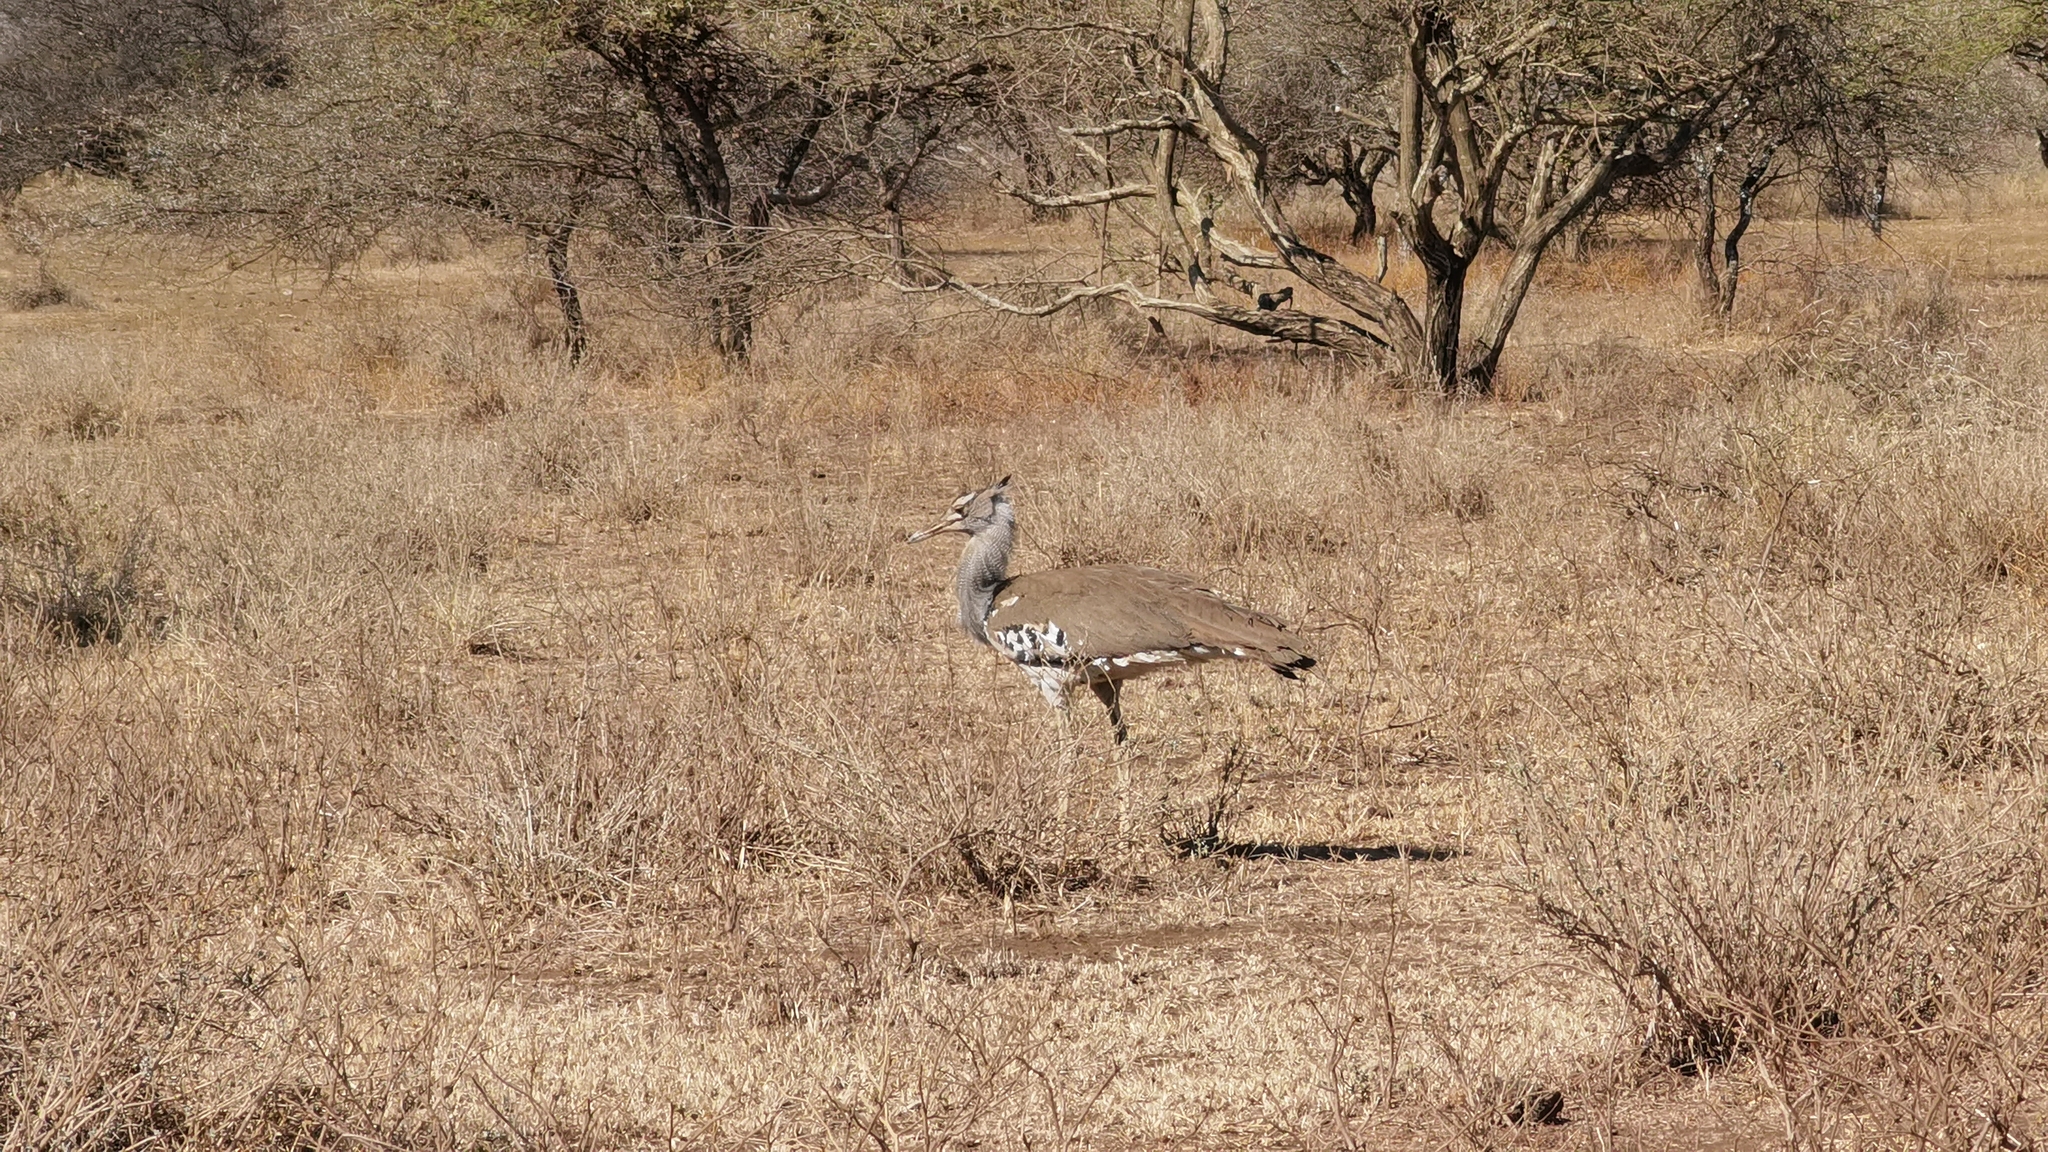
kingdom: Animalia
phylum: Chordata
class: Aves
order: Otidiformes
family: Otididae
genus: Ardeotis
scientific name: Ardeotis kori
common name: Kori bustard
